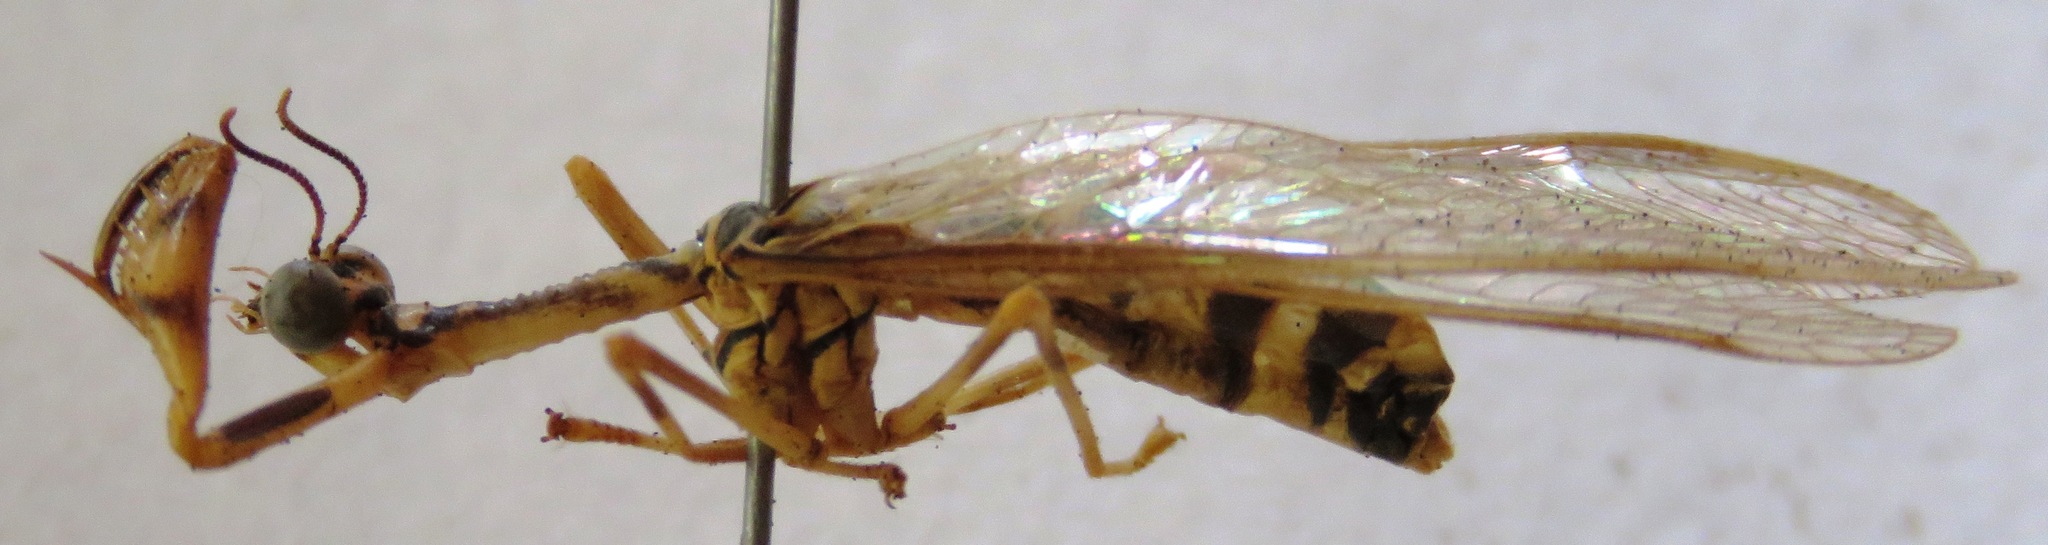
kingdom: Animalia
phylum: Arthropoda
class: Insecta
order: Neuroptera
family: Mantispidae
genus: Entanoneura
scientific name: Entanoneura batesella
